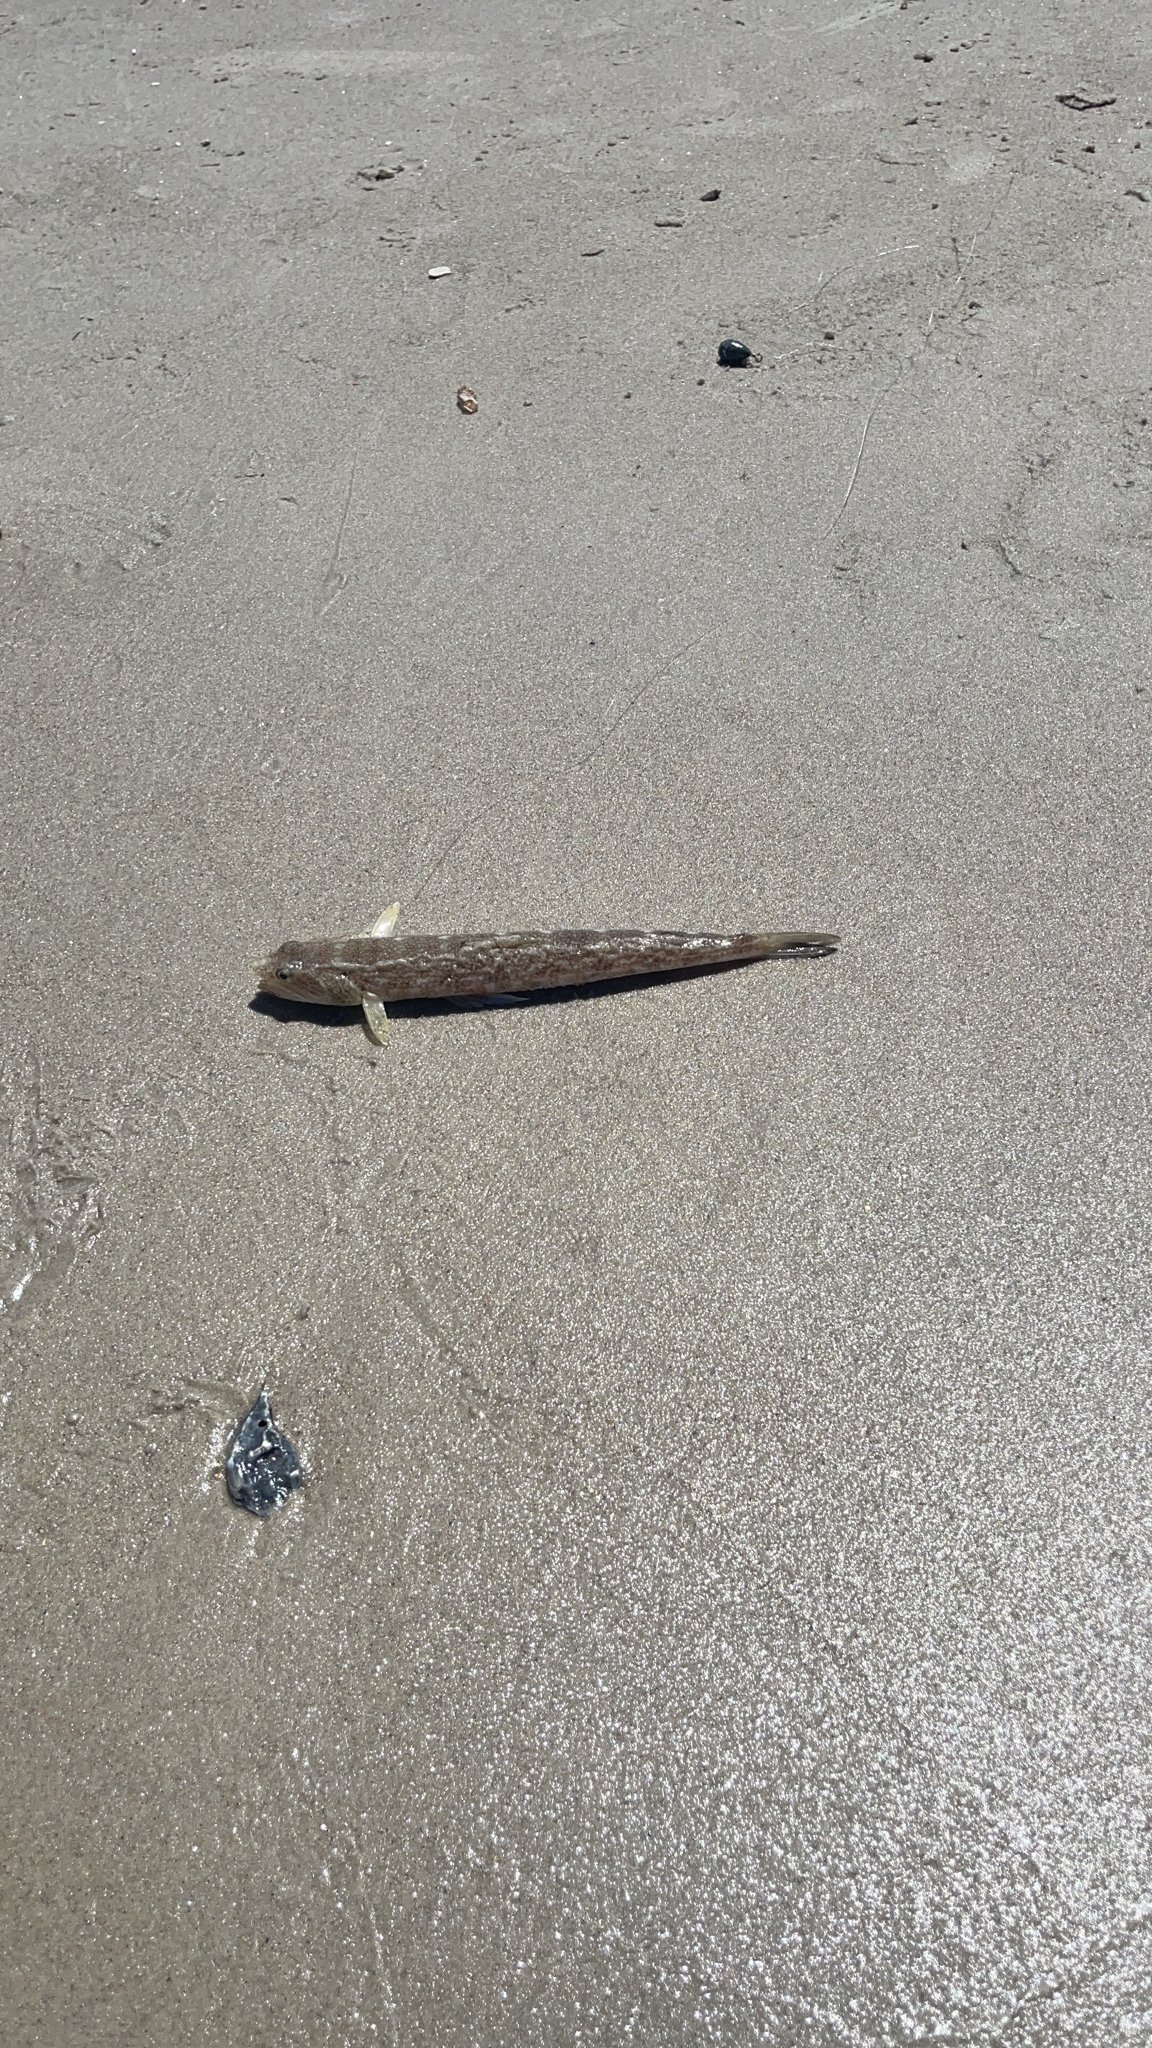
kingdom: Animalia
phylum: Chordata
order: Aulopiformes
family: Synodontidae
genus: Synodus
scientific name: Synodus foetens
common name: Inshore lizardfish
